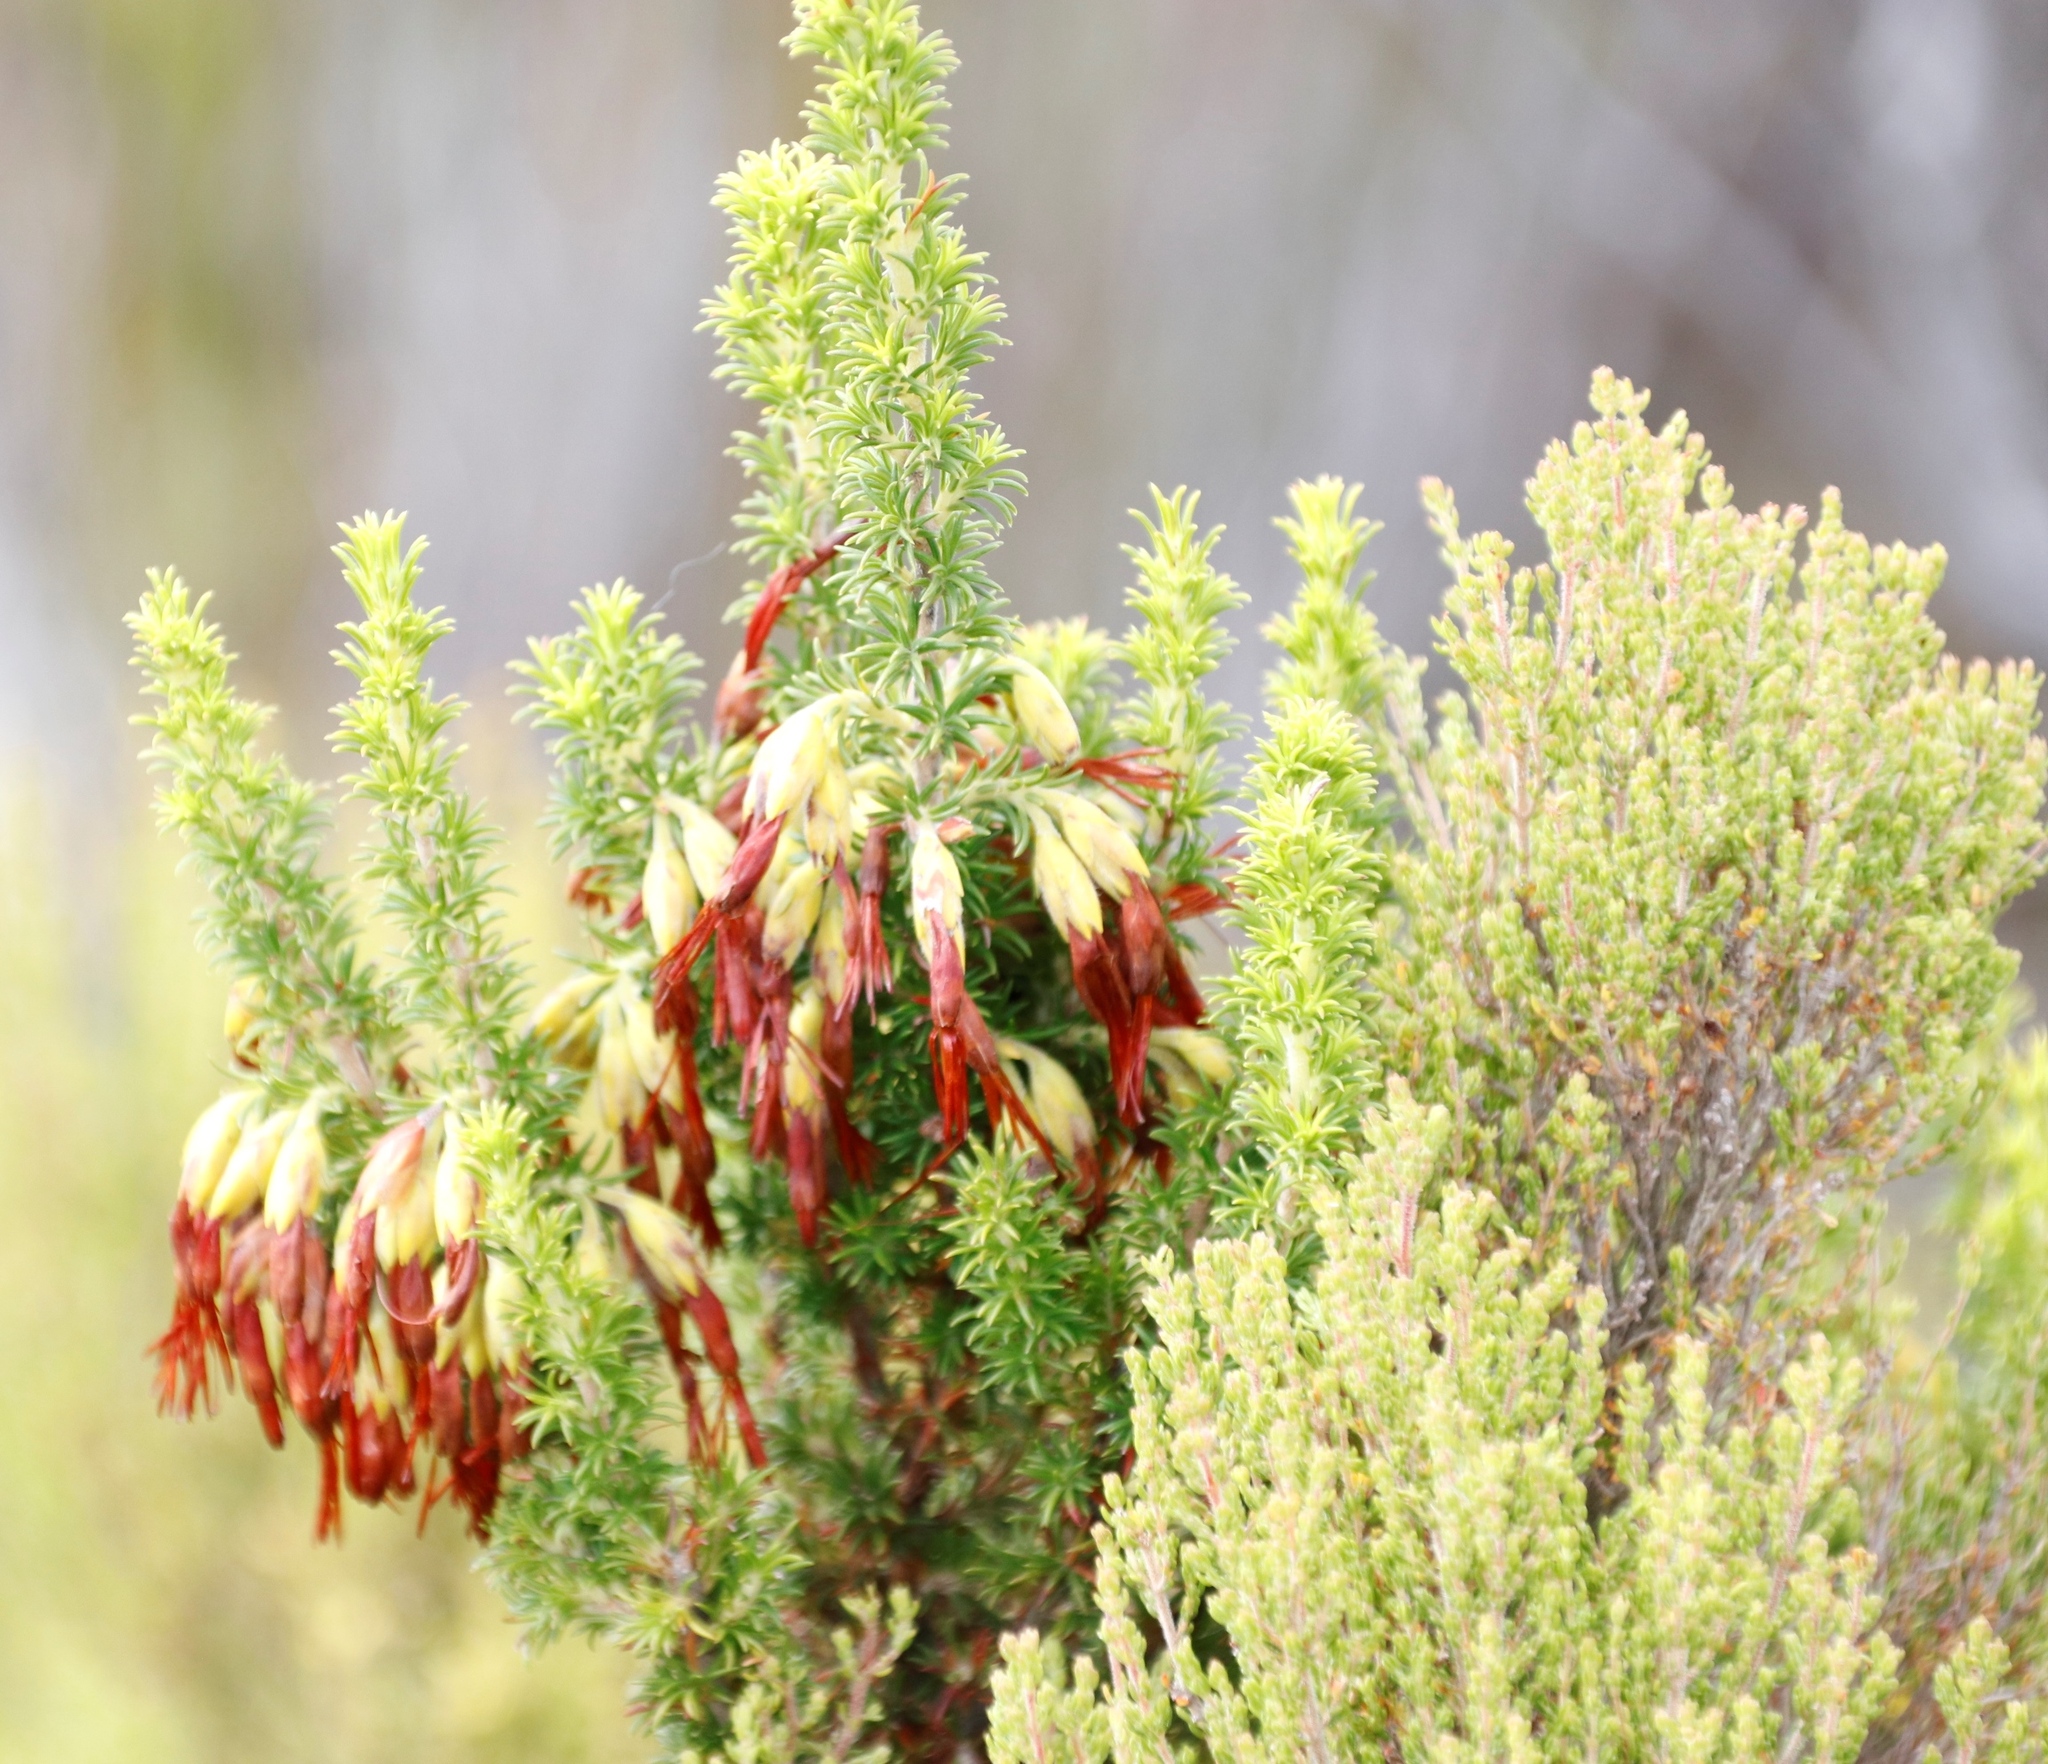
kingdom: Plantae
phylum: Tracheophyta
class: Magnoliopsida
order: Ericales
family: Ericaceae
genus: Erica
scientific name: Erica coccinea
